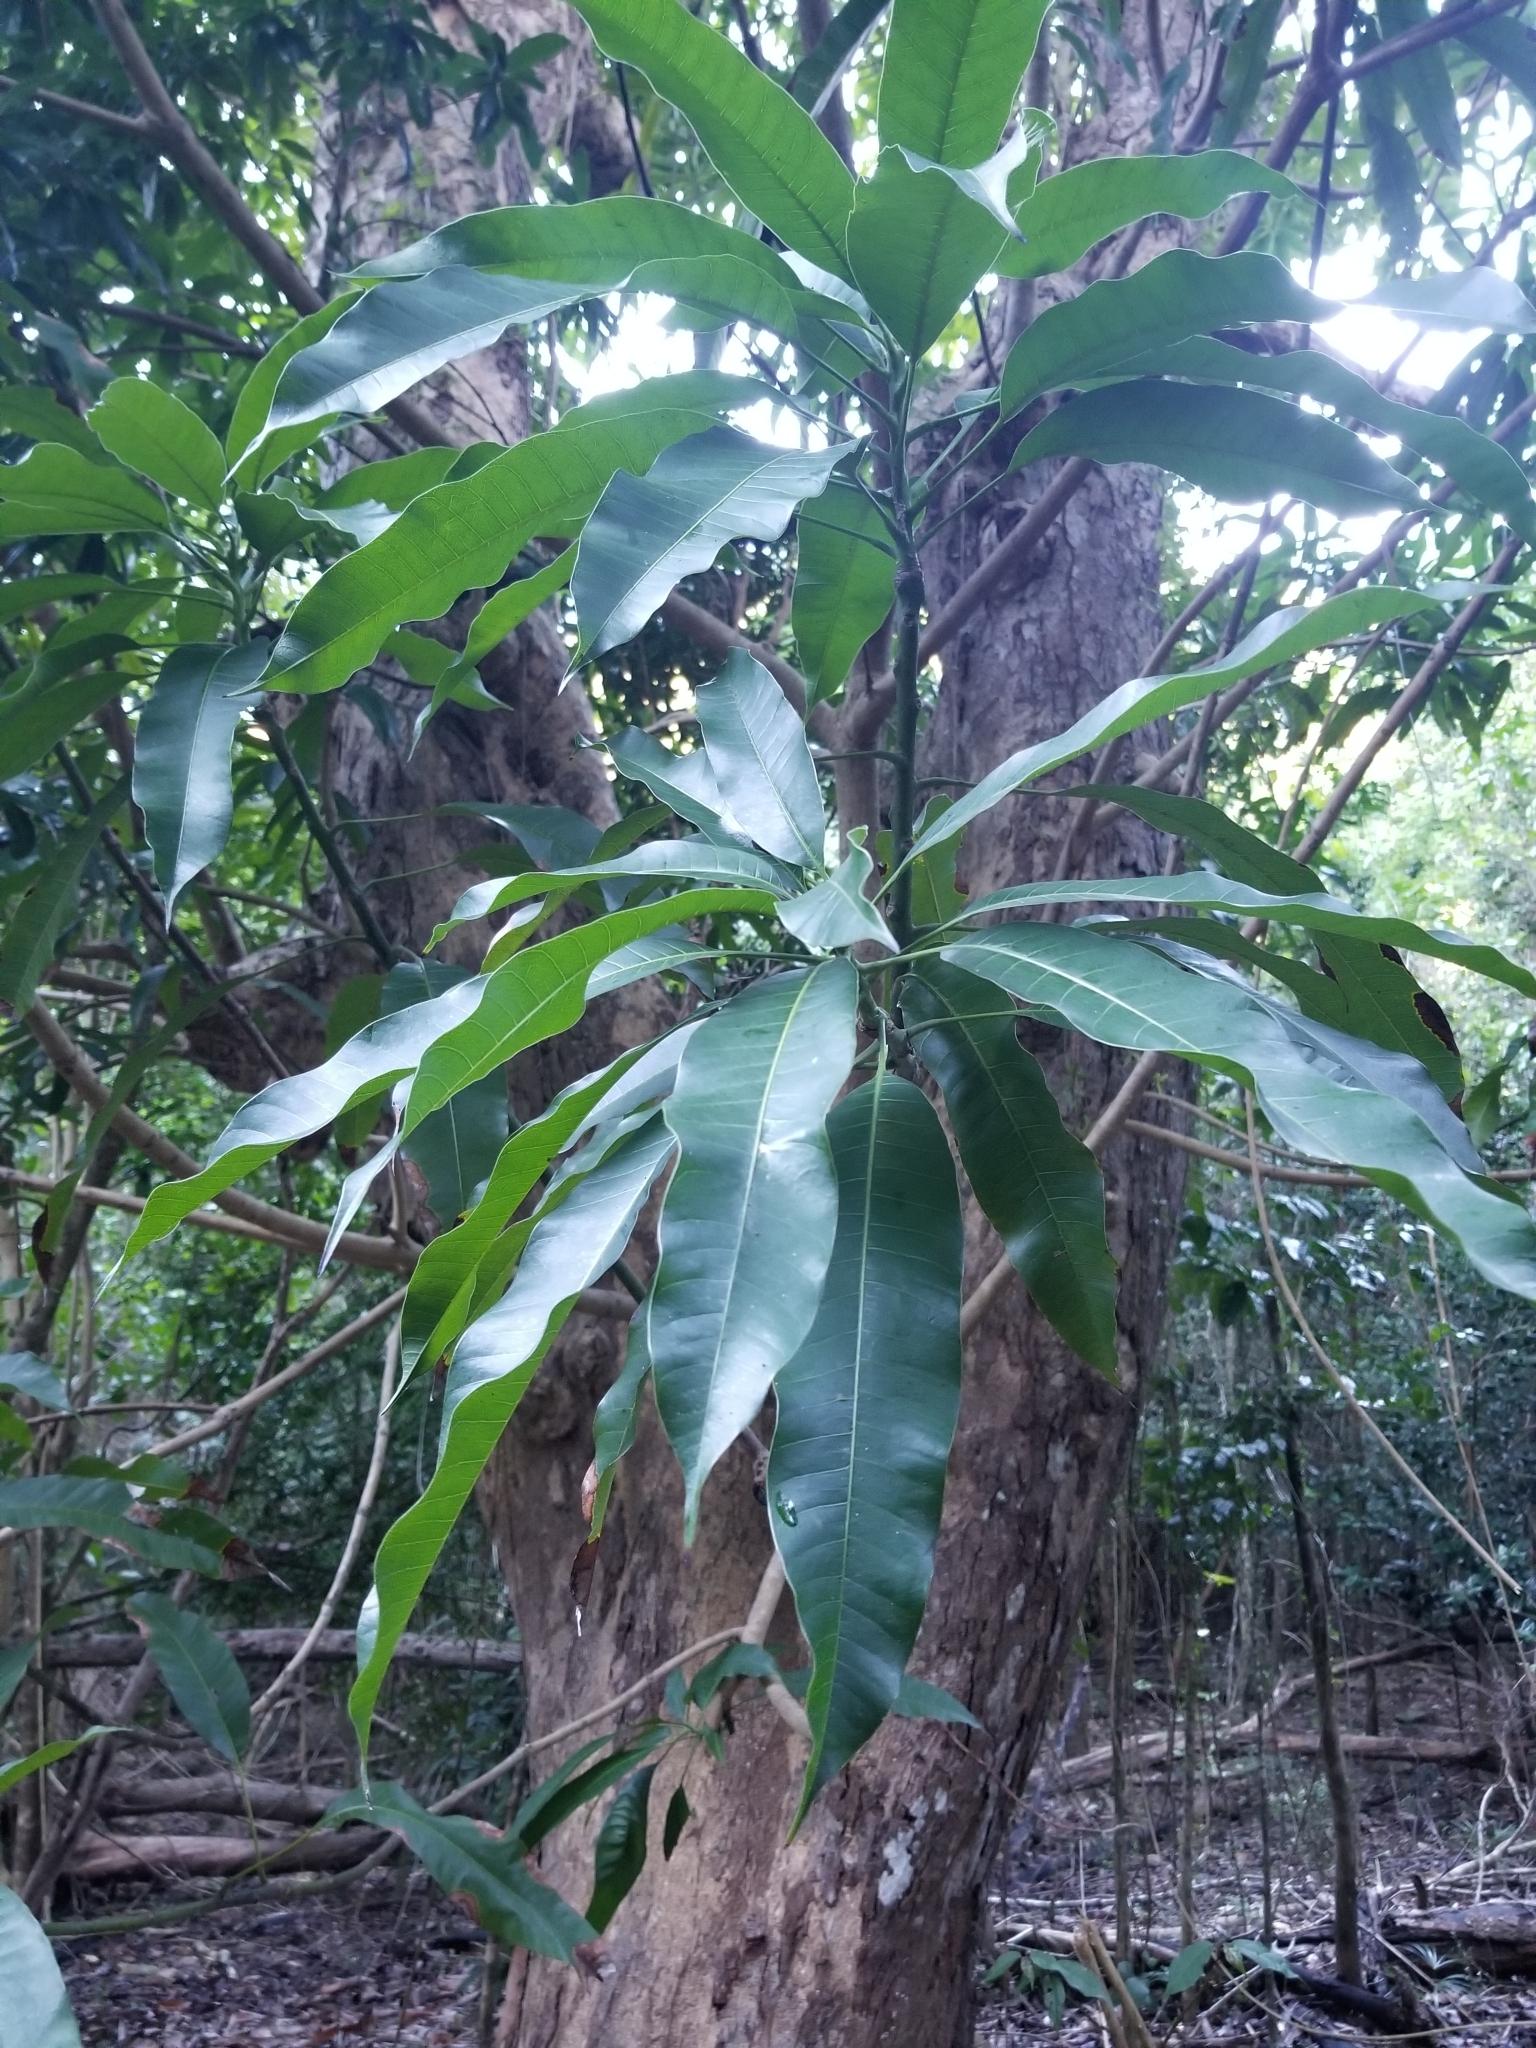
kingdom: Plantae
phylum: Tracheophyta
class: Magnoliopsida
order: Sapindales
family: Anacardiaceae
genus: Mangifera
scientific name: Mangifera indica
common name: Mango
